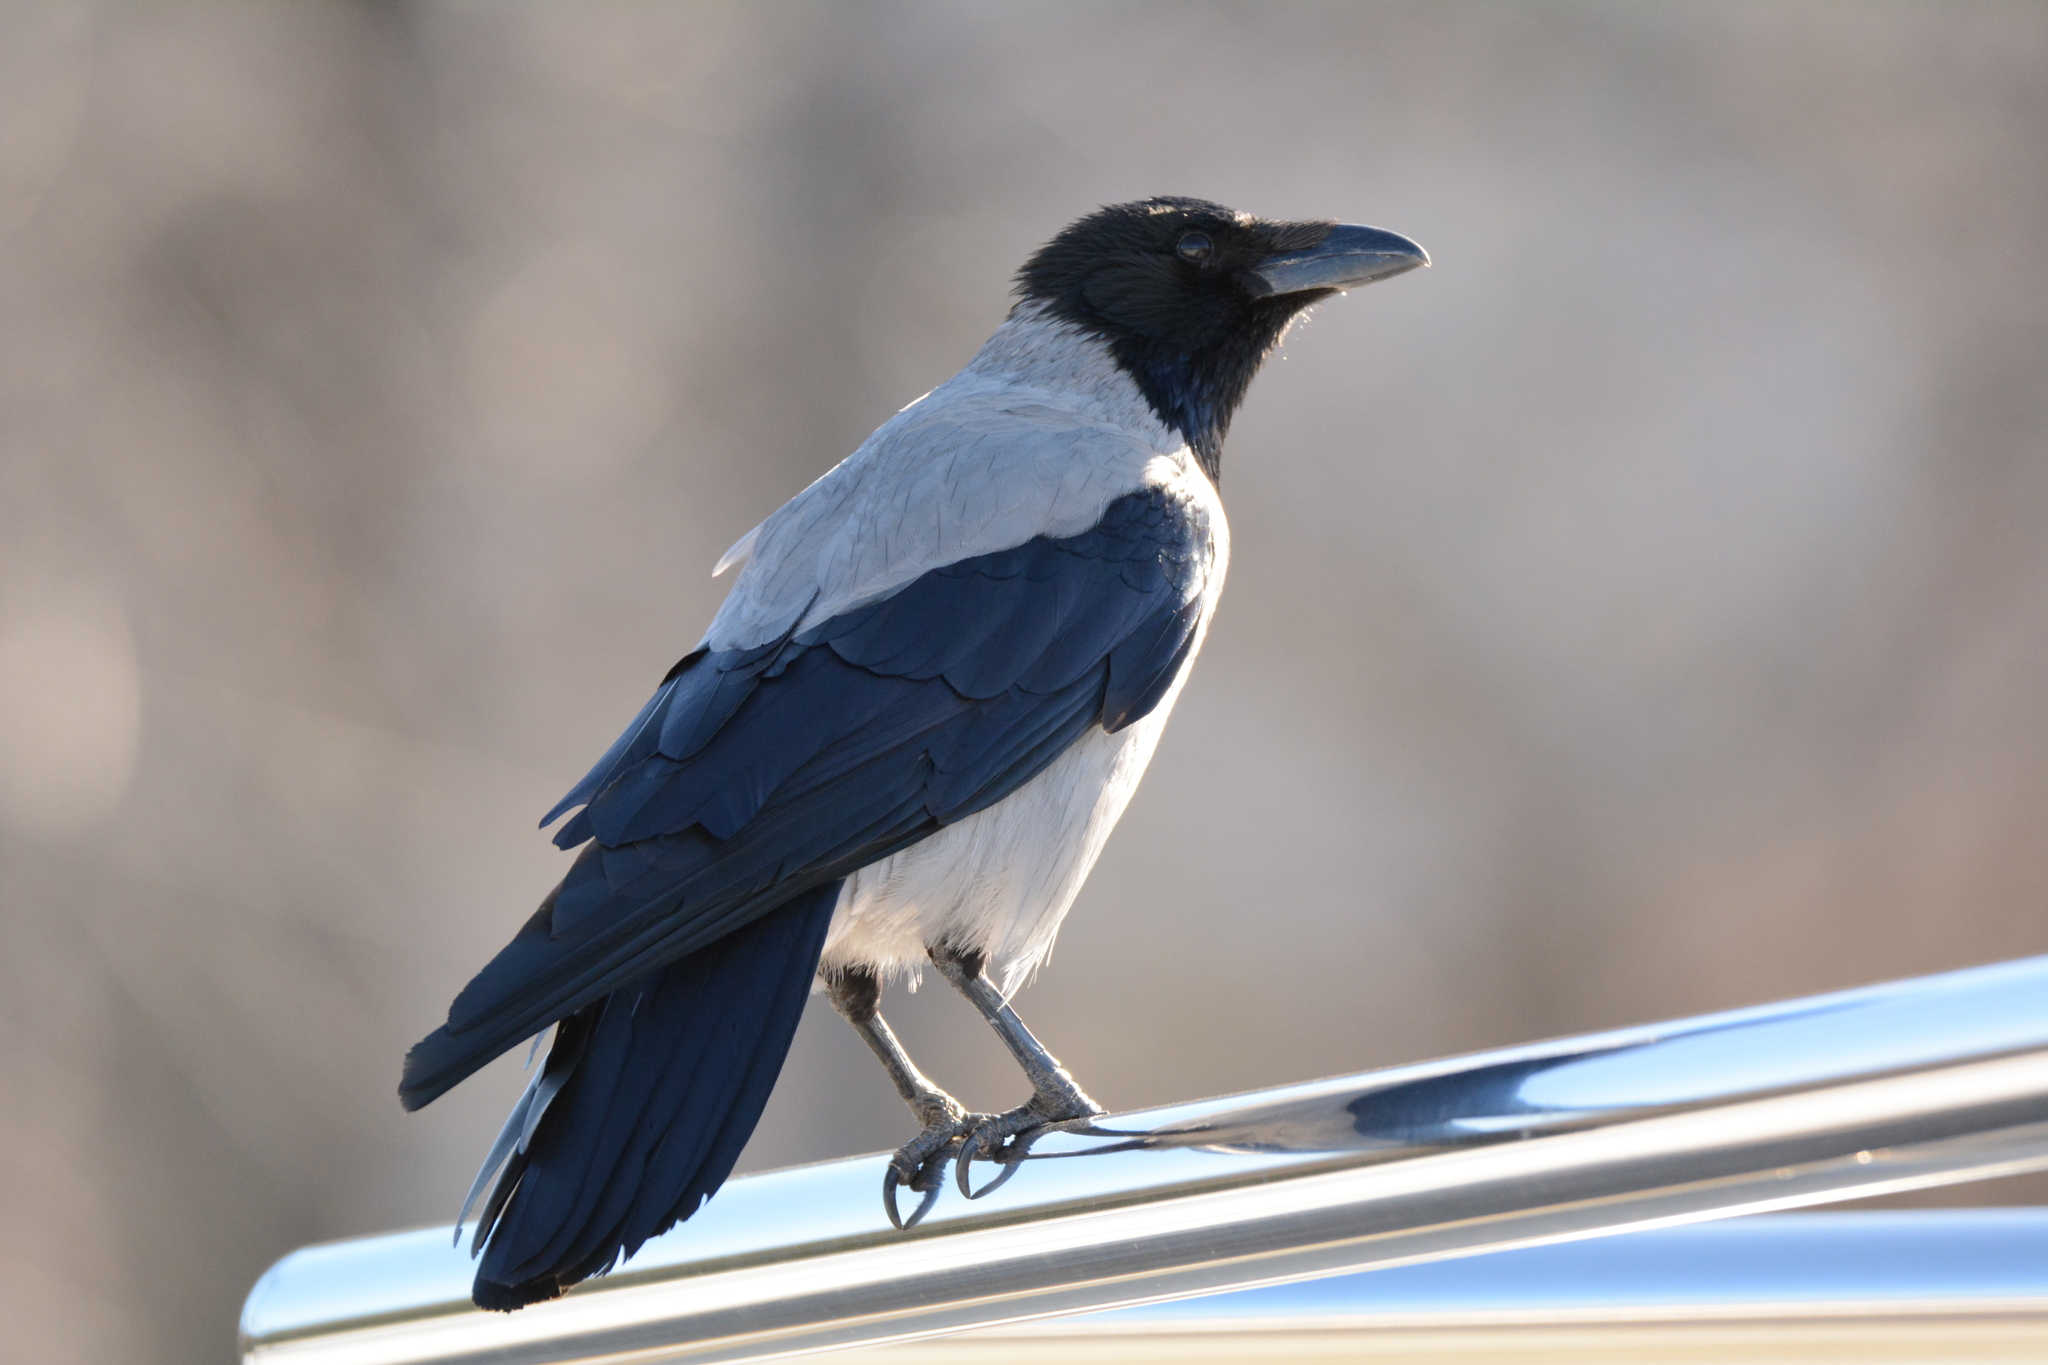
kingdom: Animalia
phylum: Chordata
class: Aves
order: Passeriformes
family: Corvidae
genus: Corvus
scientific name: Corvus cornix
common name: Hooded crow
